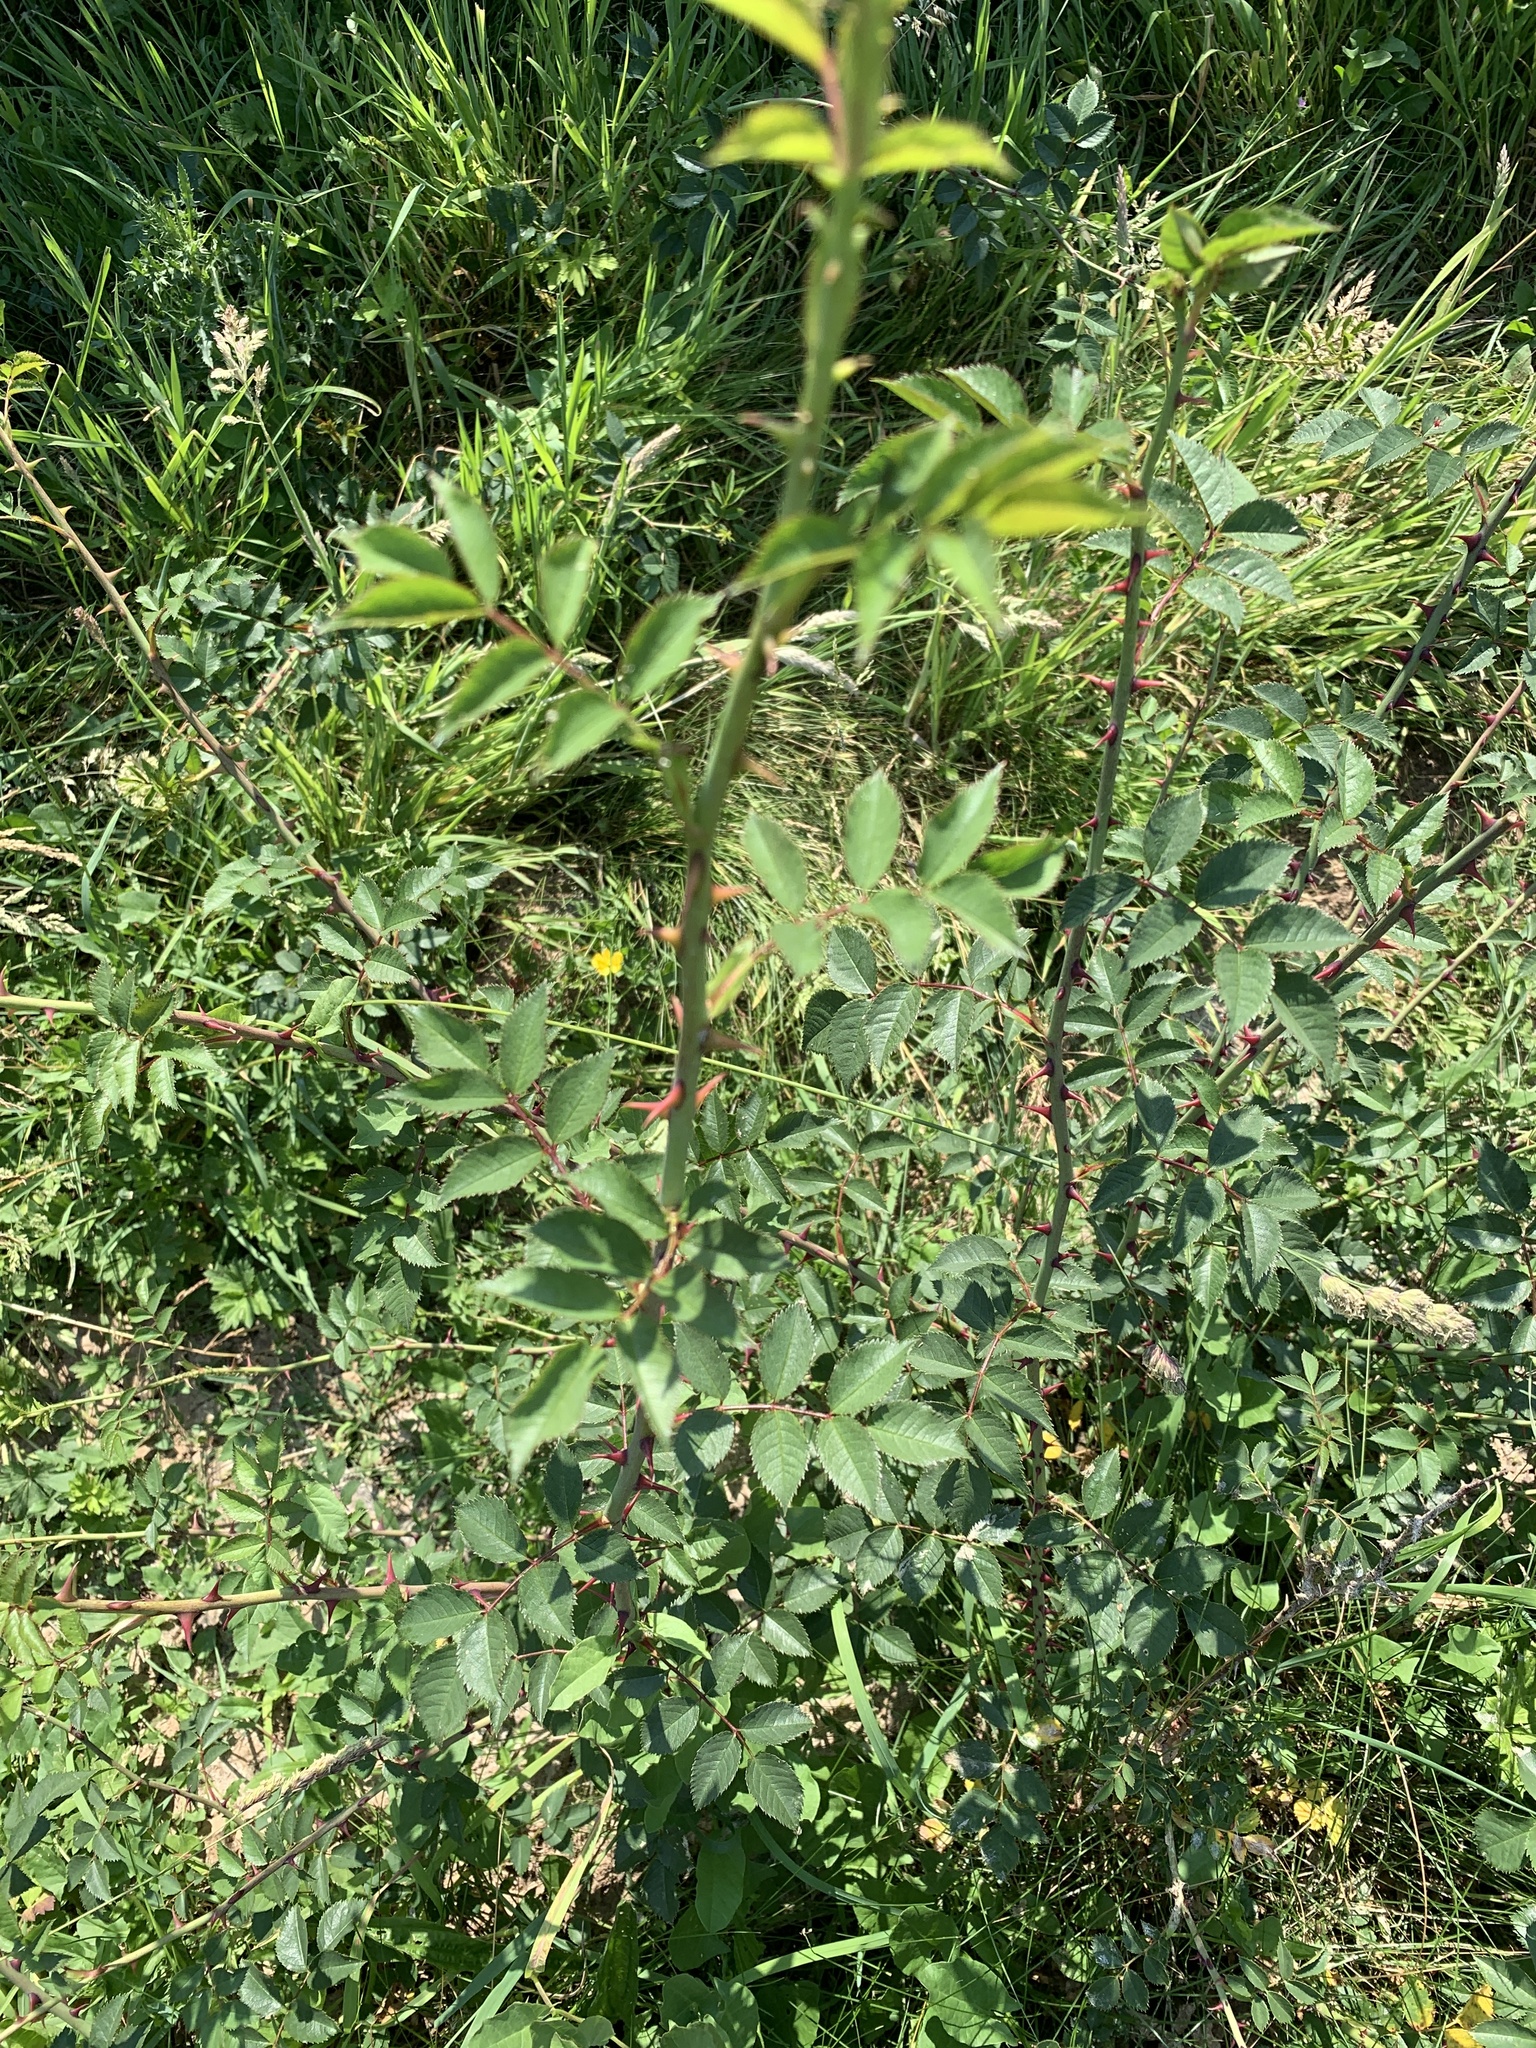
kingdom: Plantae
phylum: Tracheophyta
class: Magnoliopsida
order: Rosales
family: Rosaceae
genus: Rosa
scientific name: Rosa canina
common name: Dog rose
